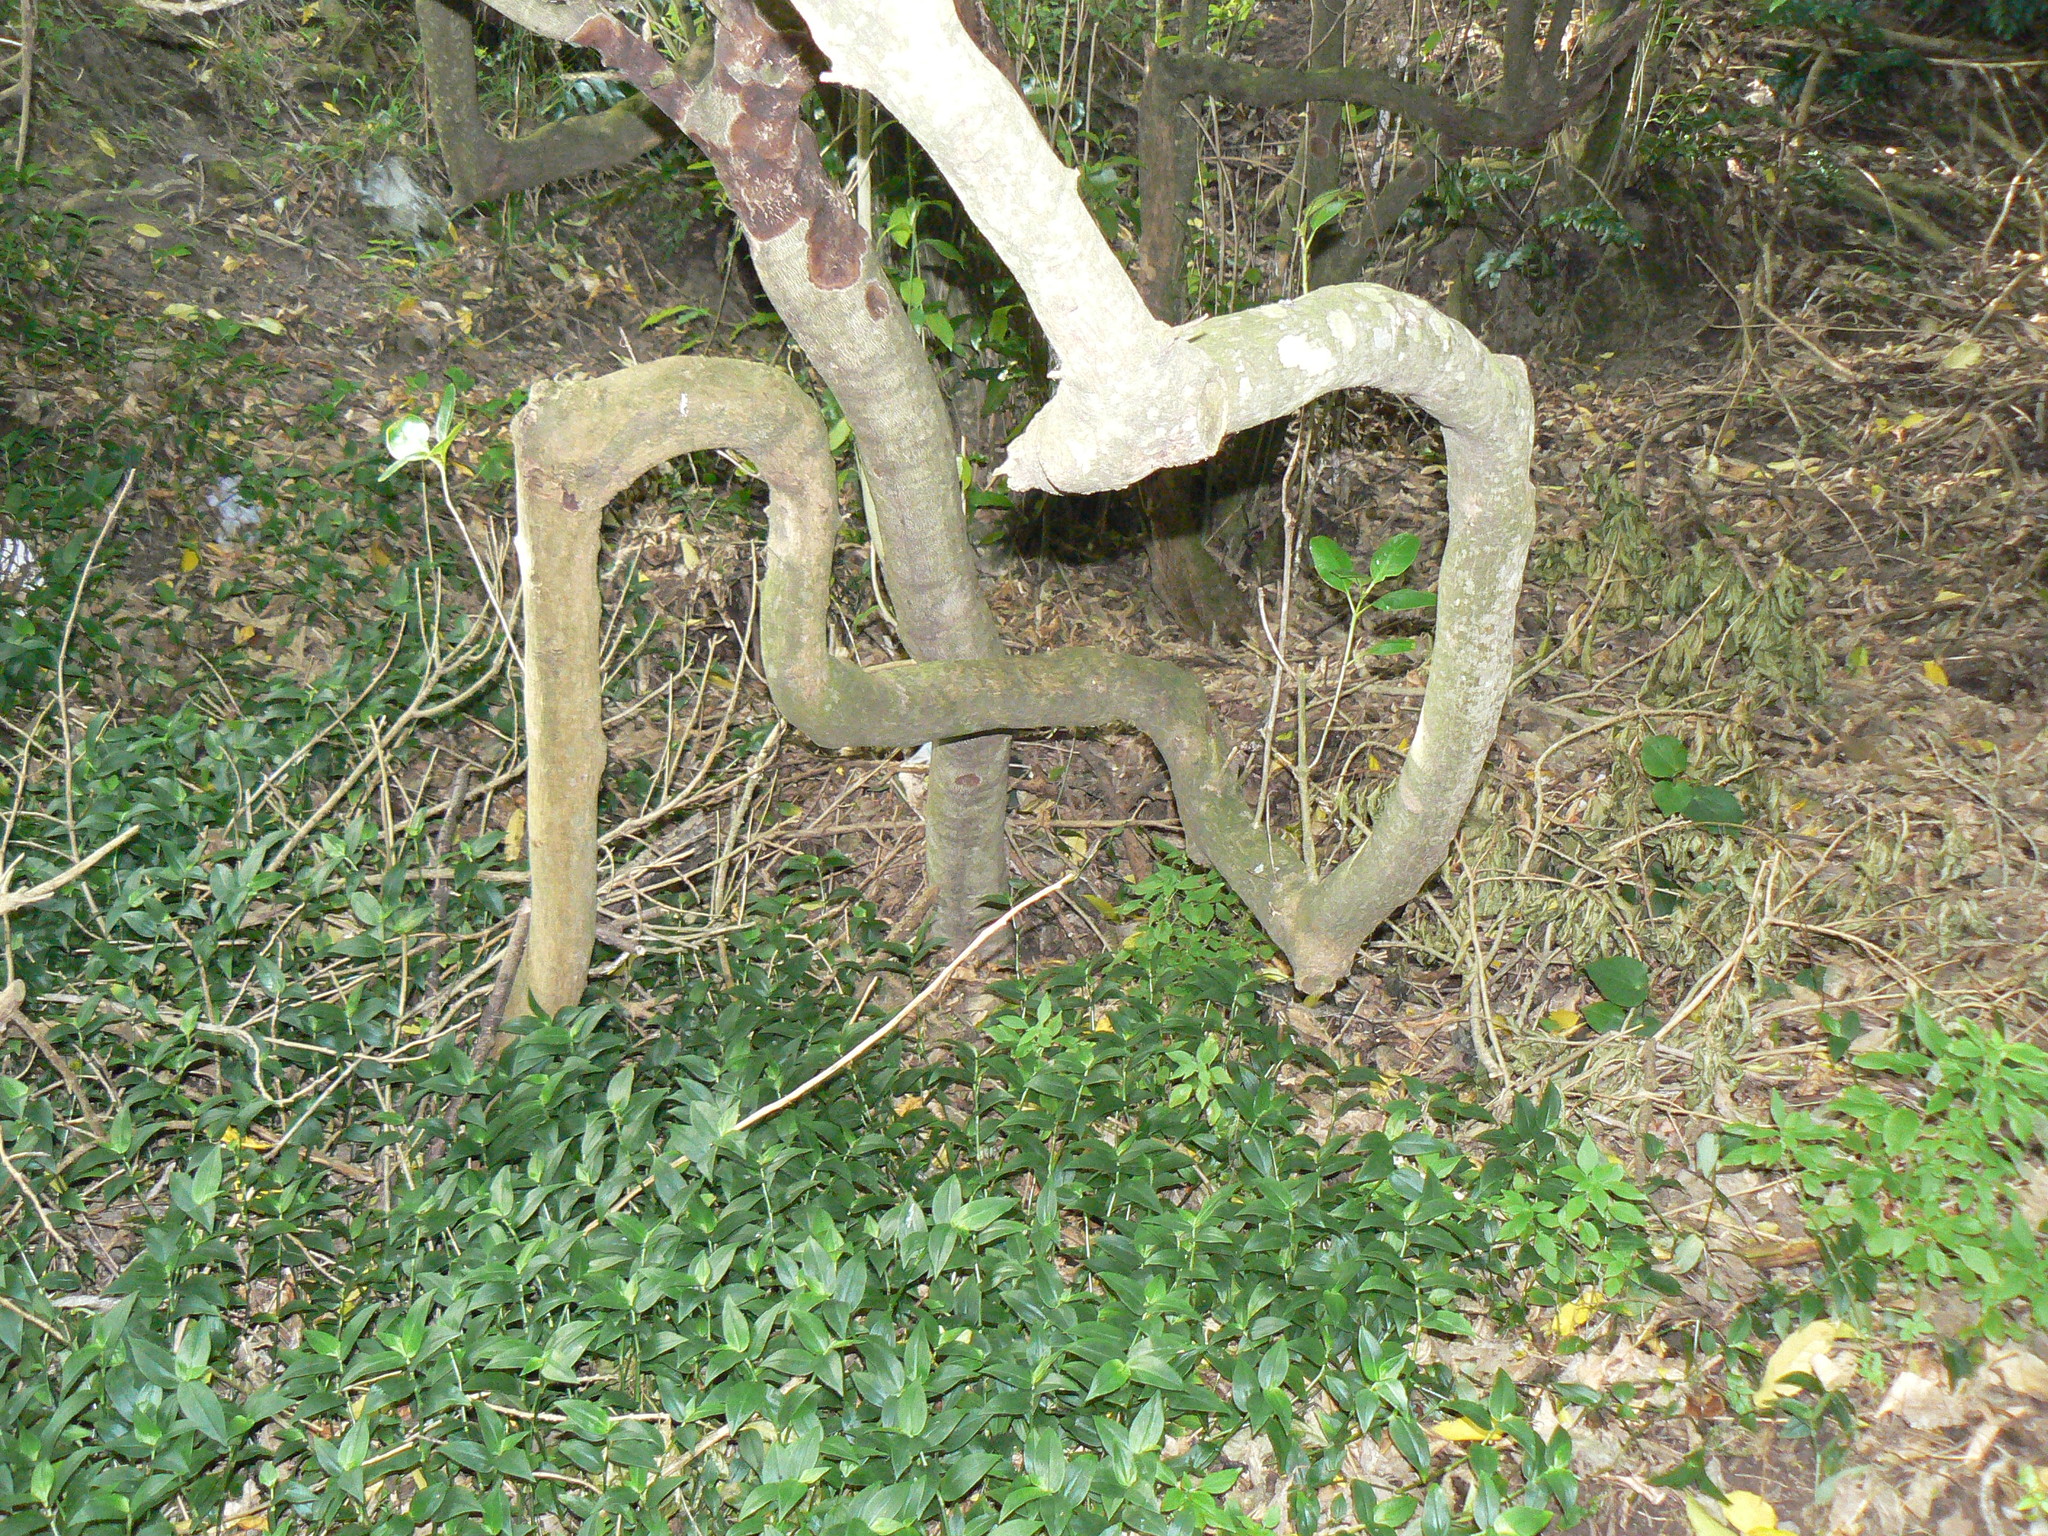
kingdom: Plantae
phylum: Tracheophyta
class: Magnoliopsida
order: Gentianales
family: Rubiaceae
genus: Coprosma
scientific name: Coprosma repens
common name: Tree bedstraw
